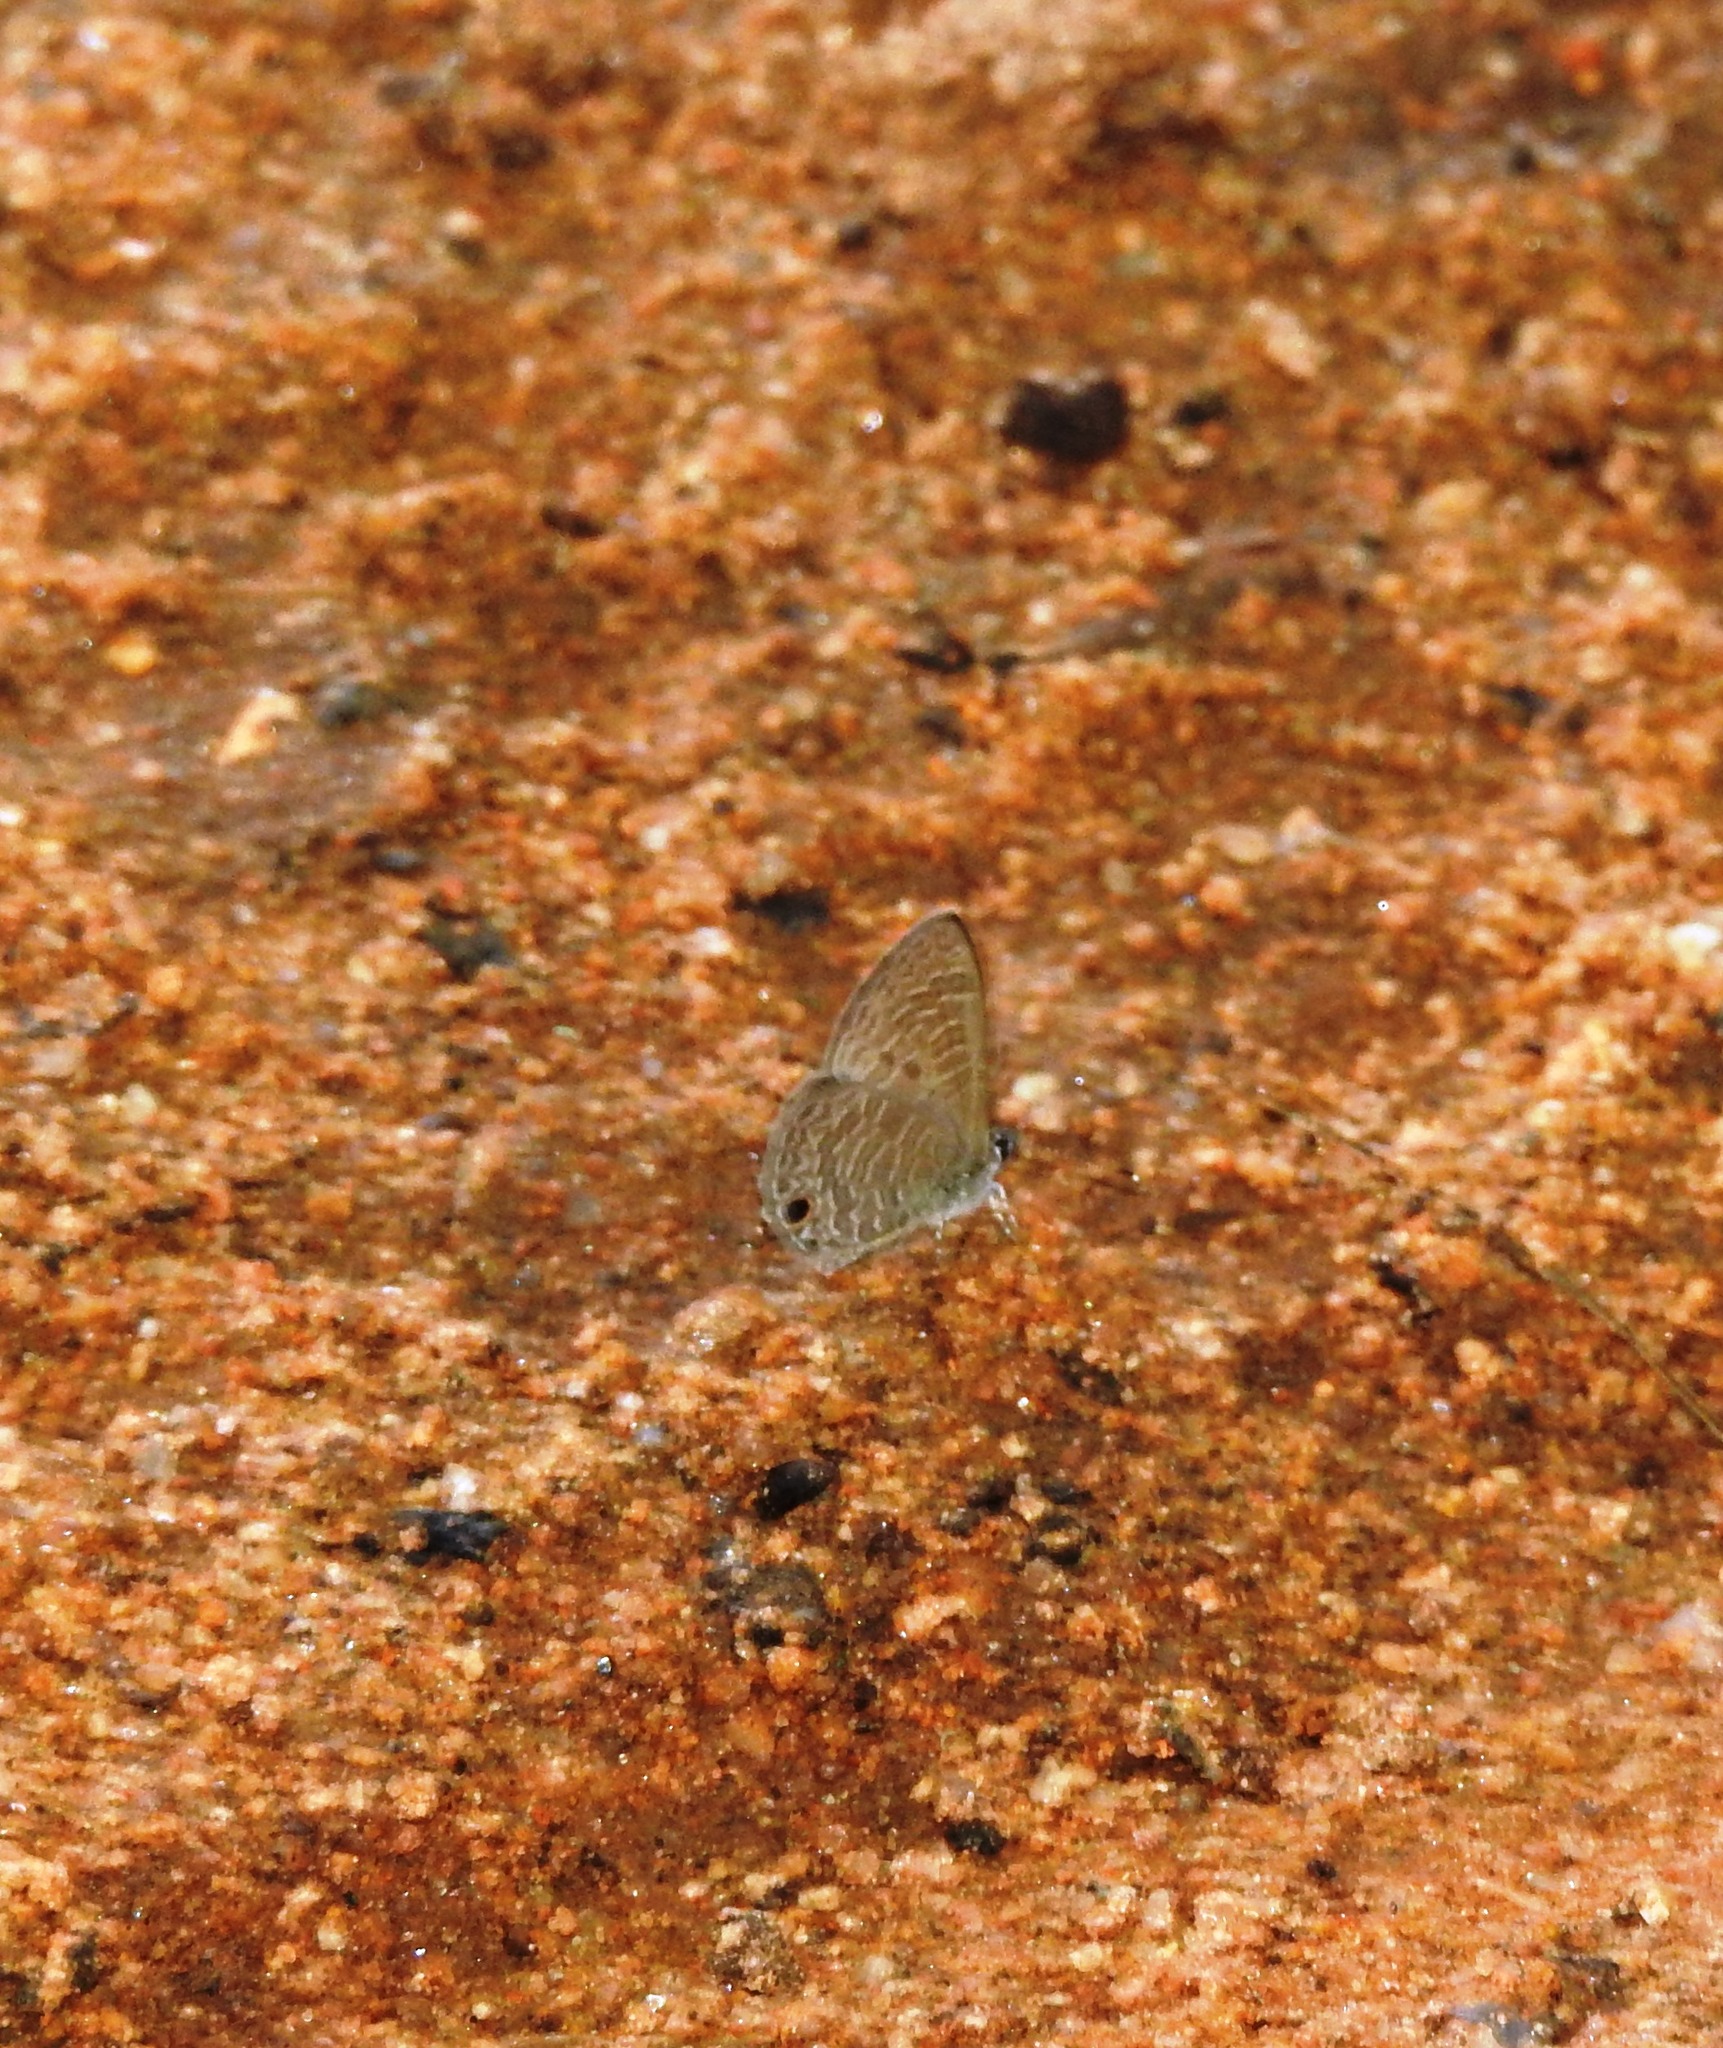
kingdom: Animalia
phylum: Arthropoda
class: Insecta
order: Lepidoptera
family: Lycaenidae
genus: Prosotas
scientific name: Prosotas dubiosa
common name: Tailless lineblue
